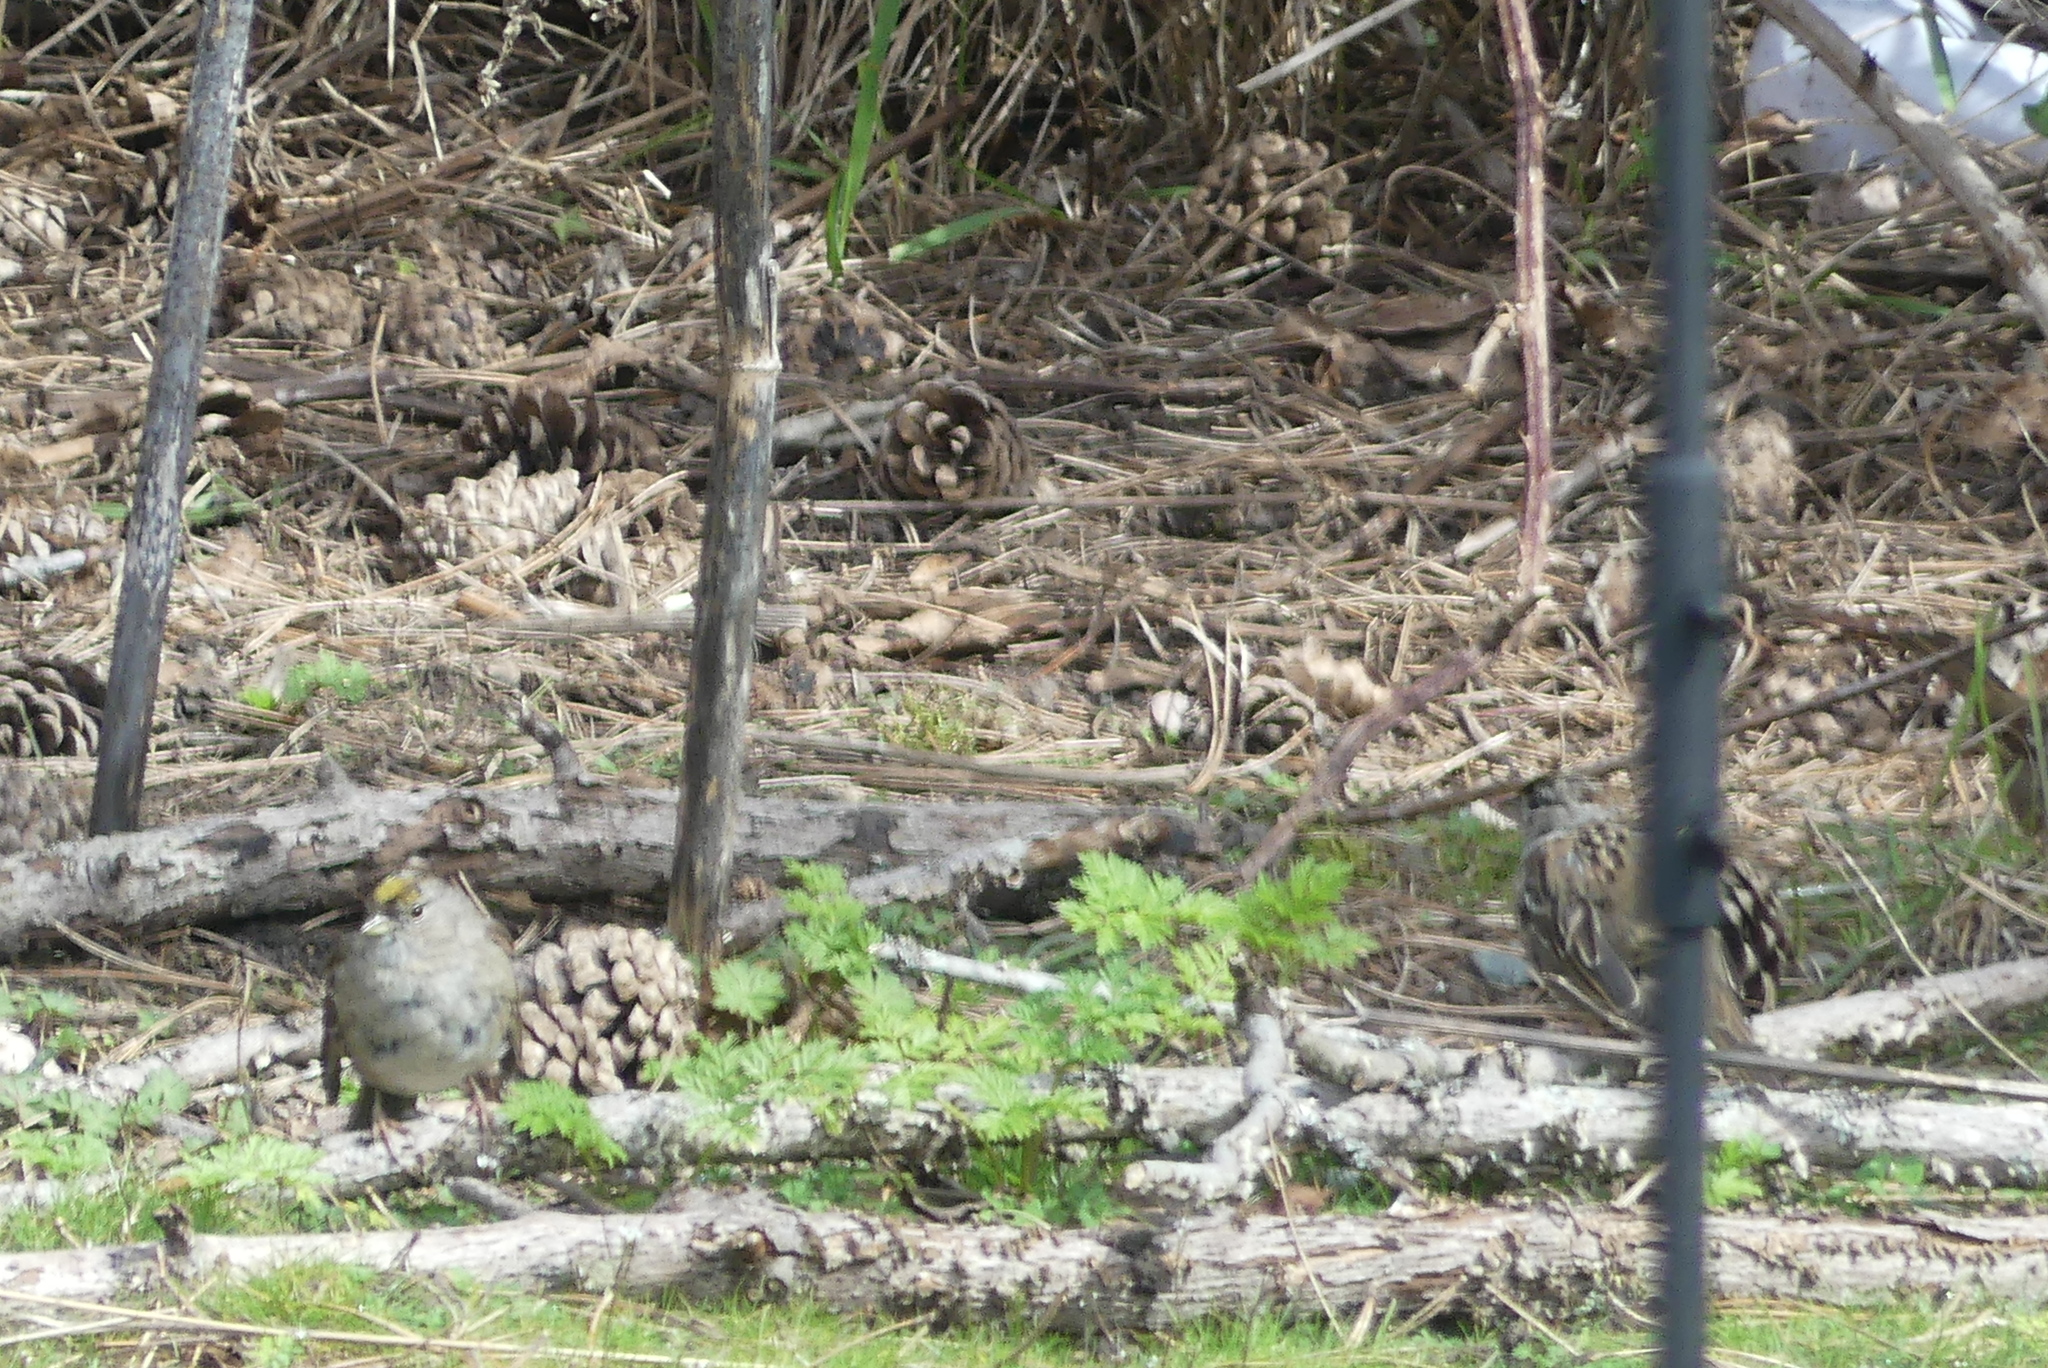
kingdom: Animalia
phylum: Chordata
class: Aves
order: Passeriformes
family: Passerellidae
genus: Zonotrichia
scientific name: Zonotrichia atricapilla
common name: Golden-crowned sparrow
